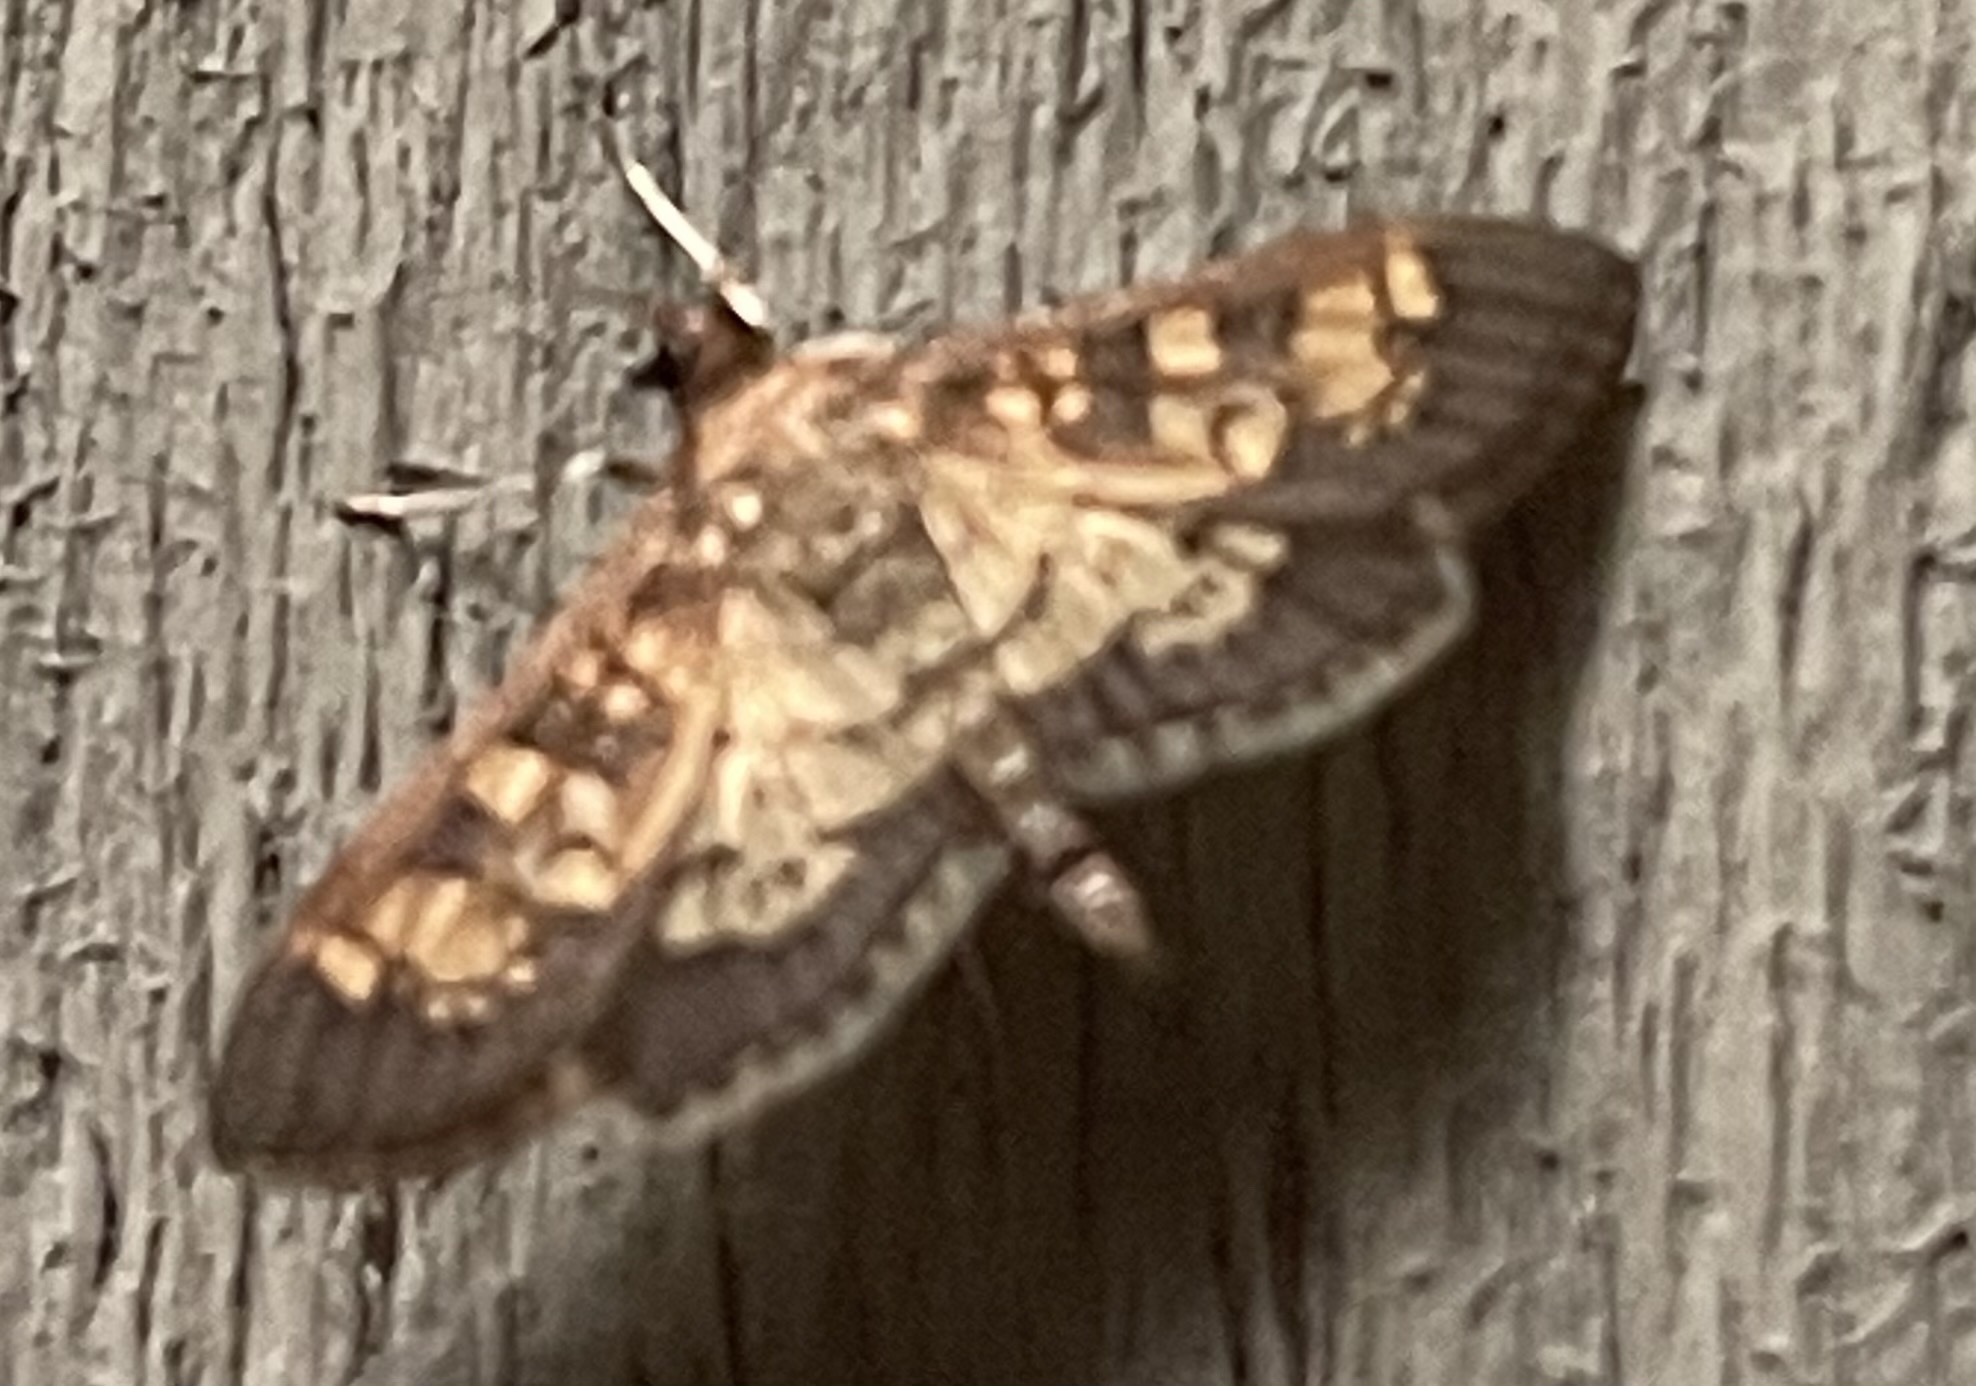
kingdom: Animalia
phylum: Arthropoda
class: Insecta
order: Lepidoptera
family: Crambidae
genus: Epipagis
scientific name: Epipagis adipaloides
